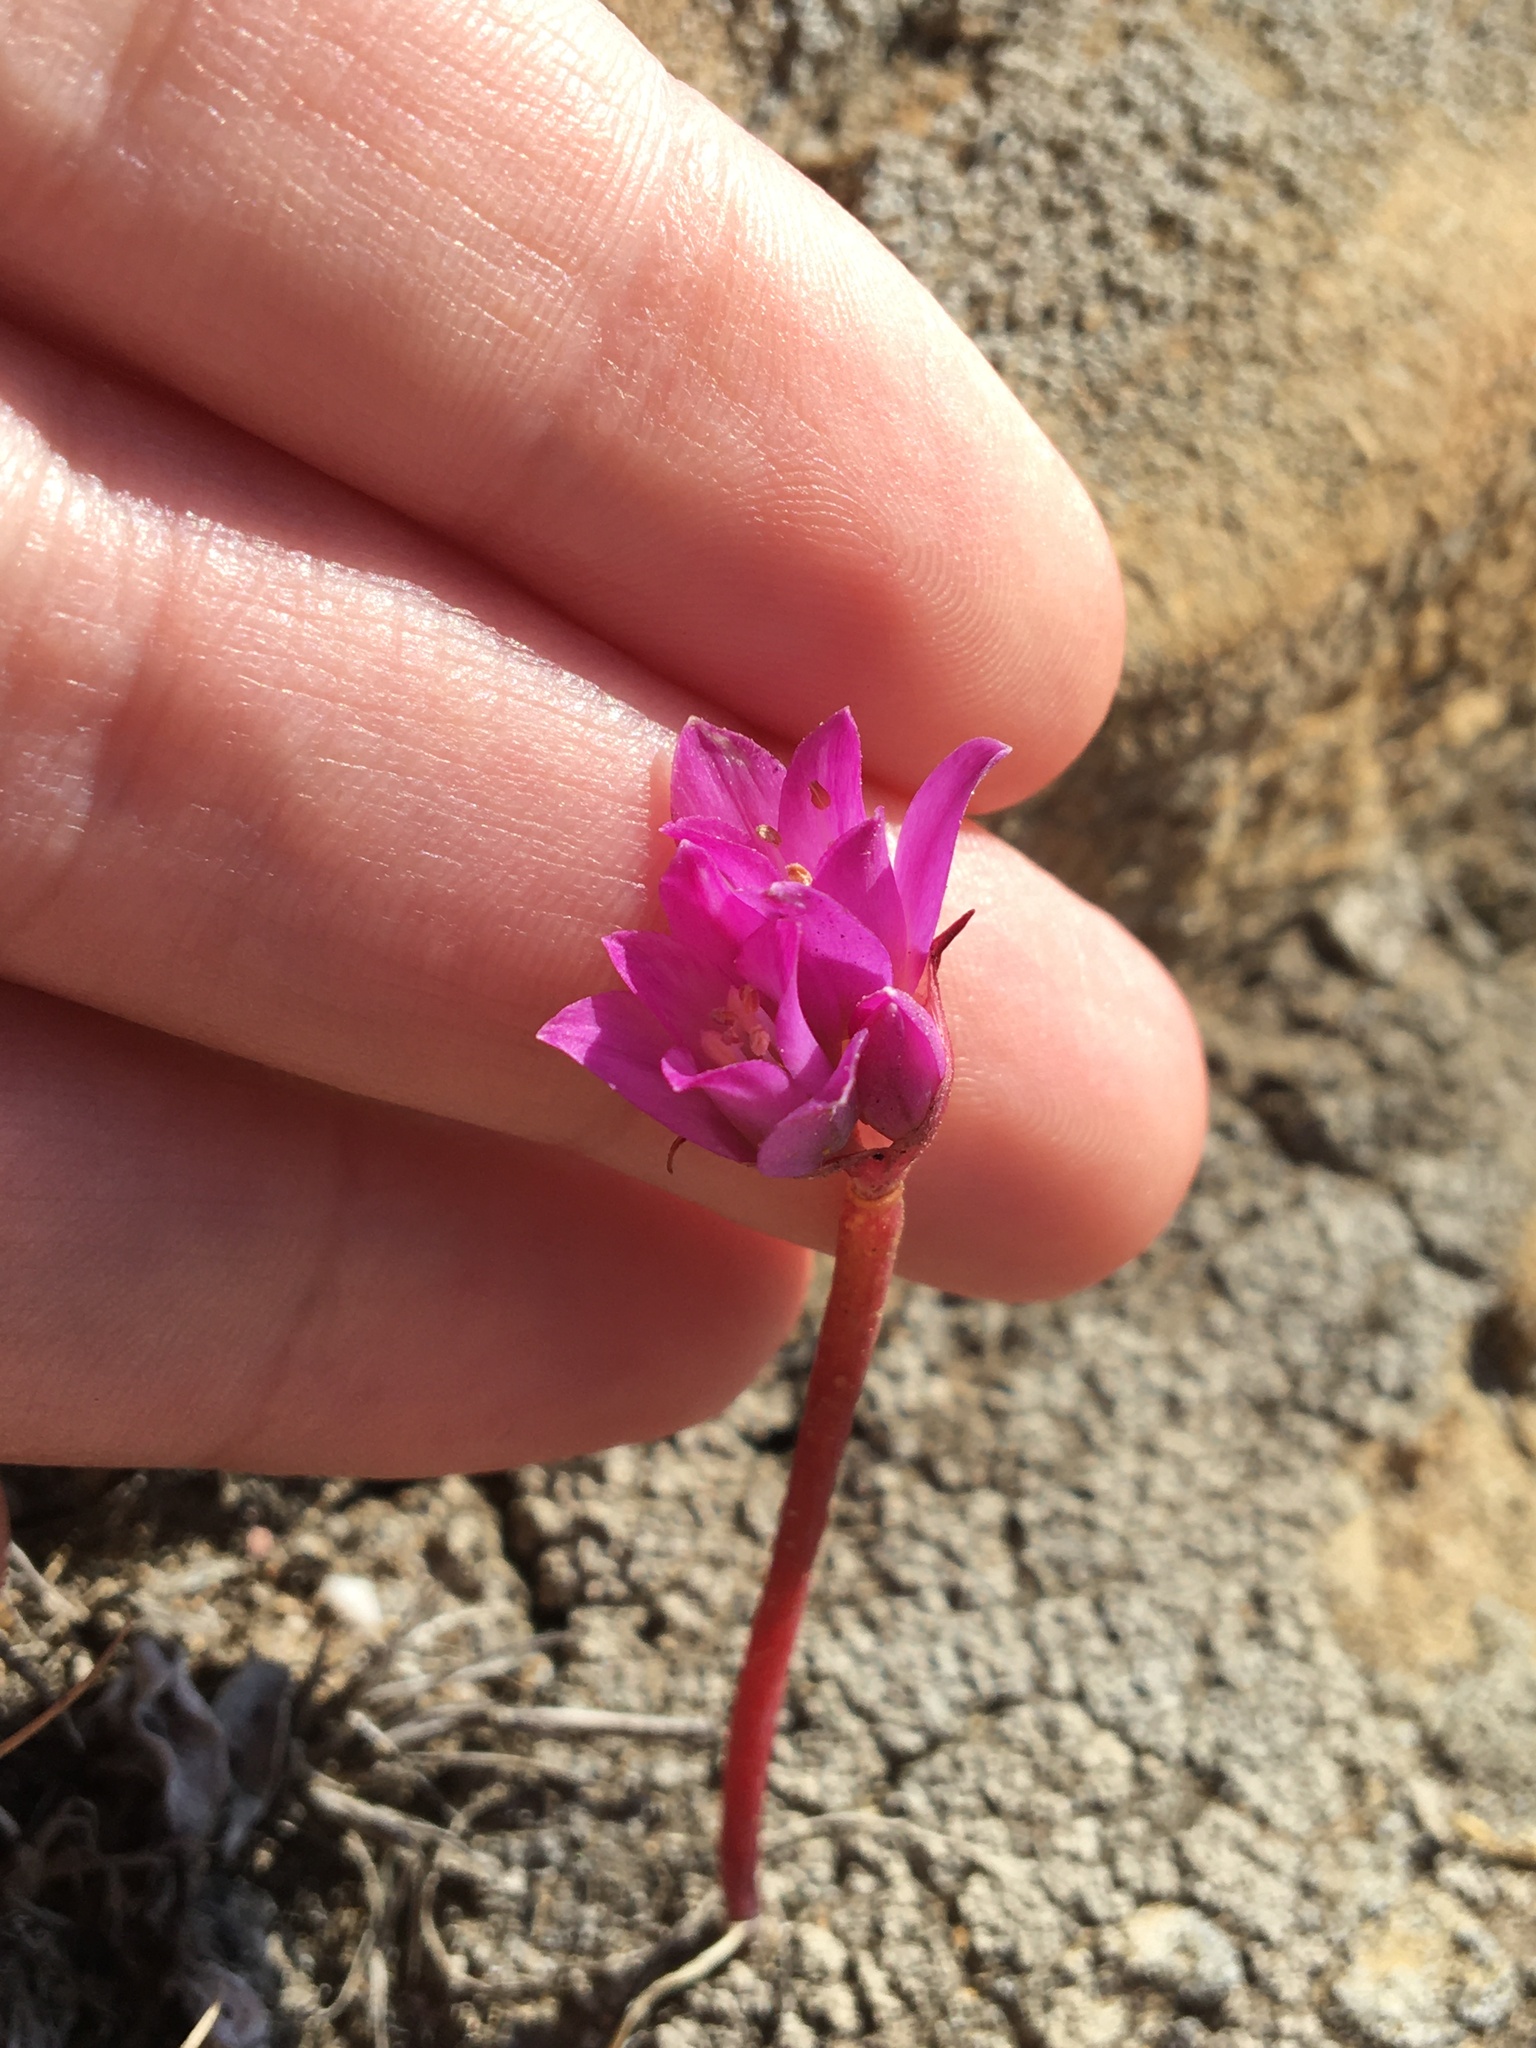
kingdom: Plantae
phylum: Tracheophyta
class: Liliopsida
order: Asparagales
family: Amaryllidaceae
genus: Allium
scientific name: Allium dichlamydeum
